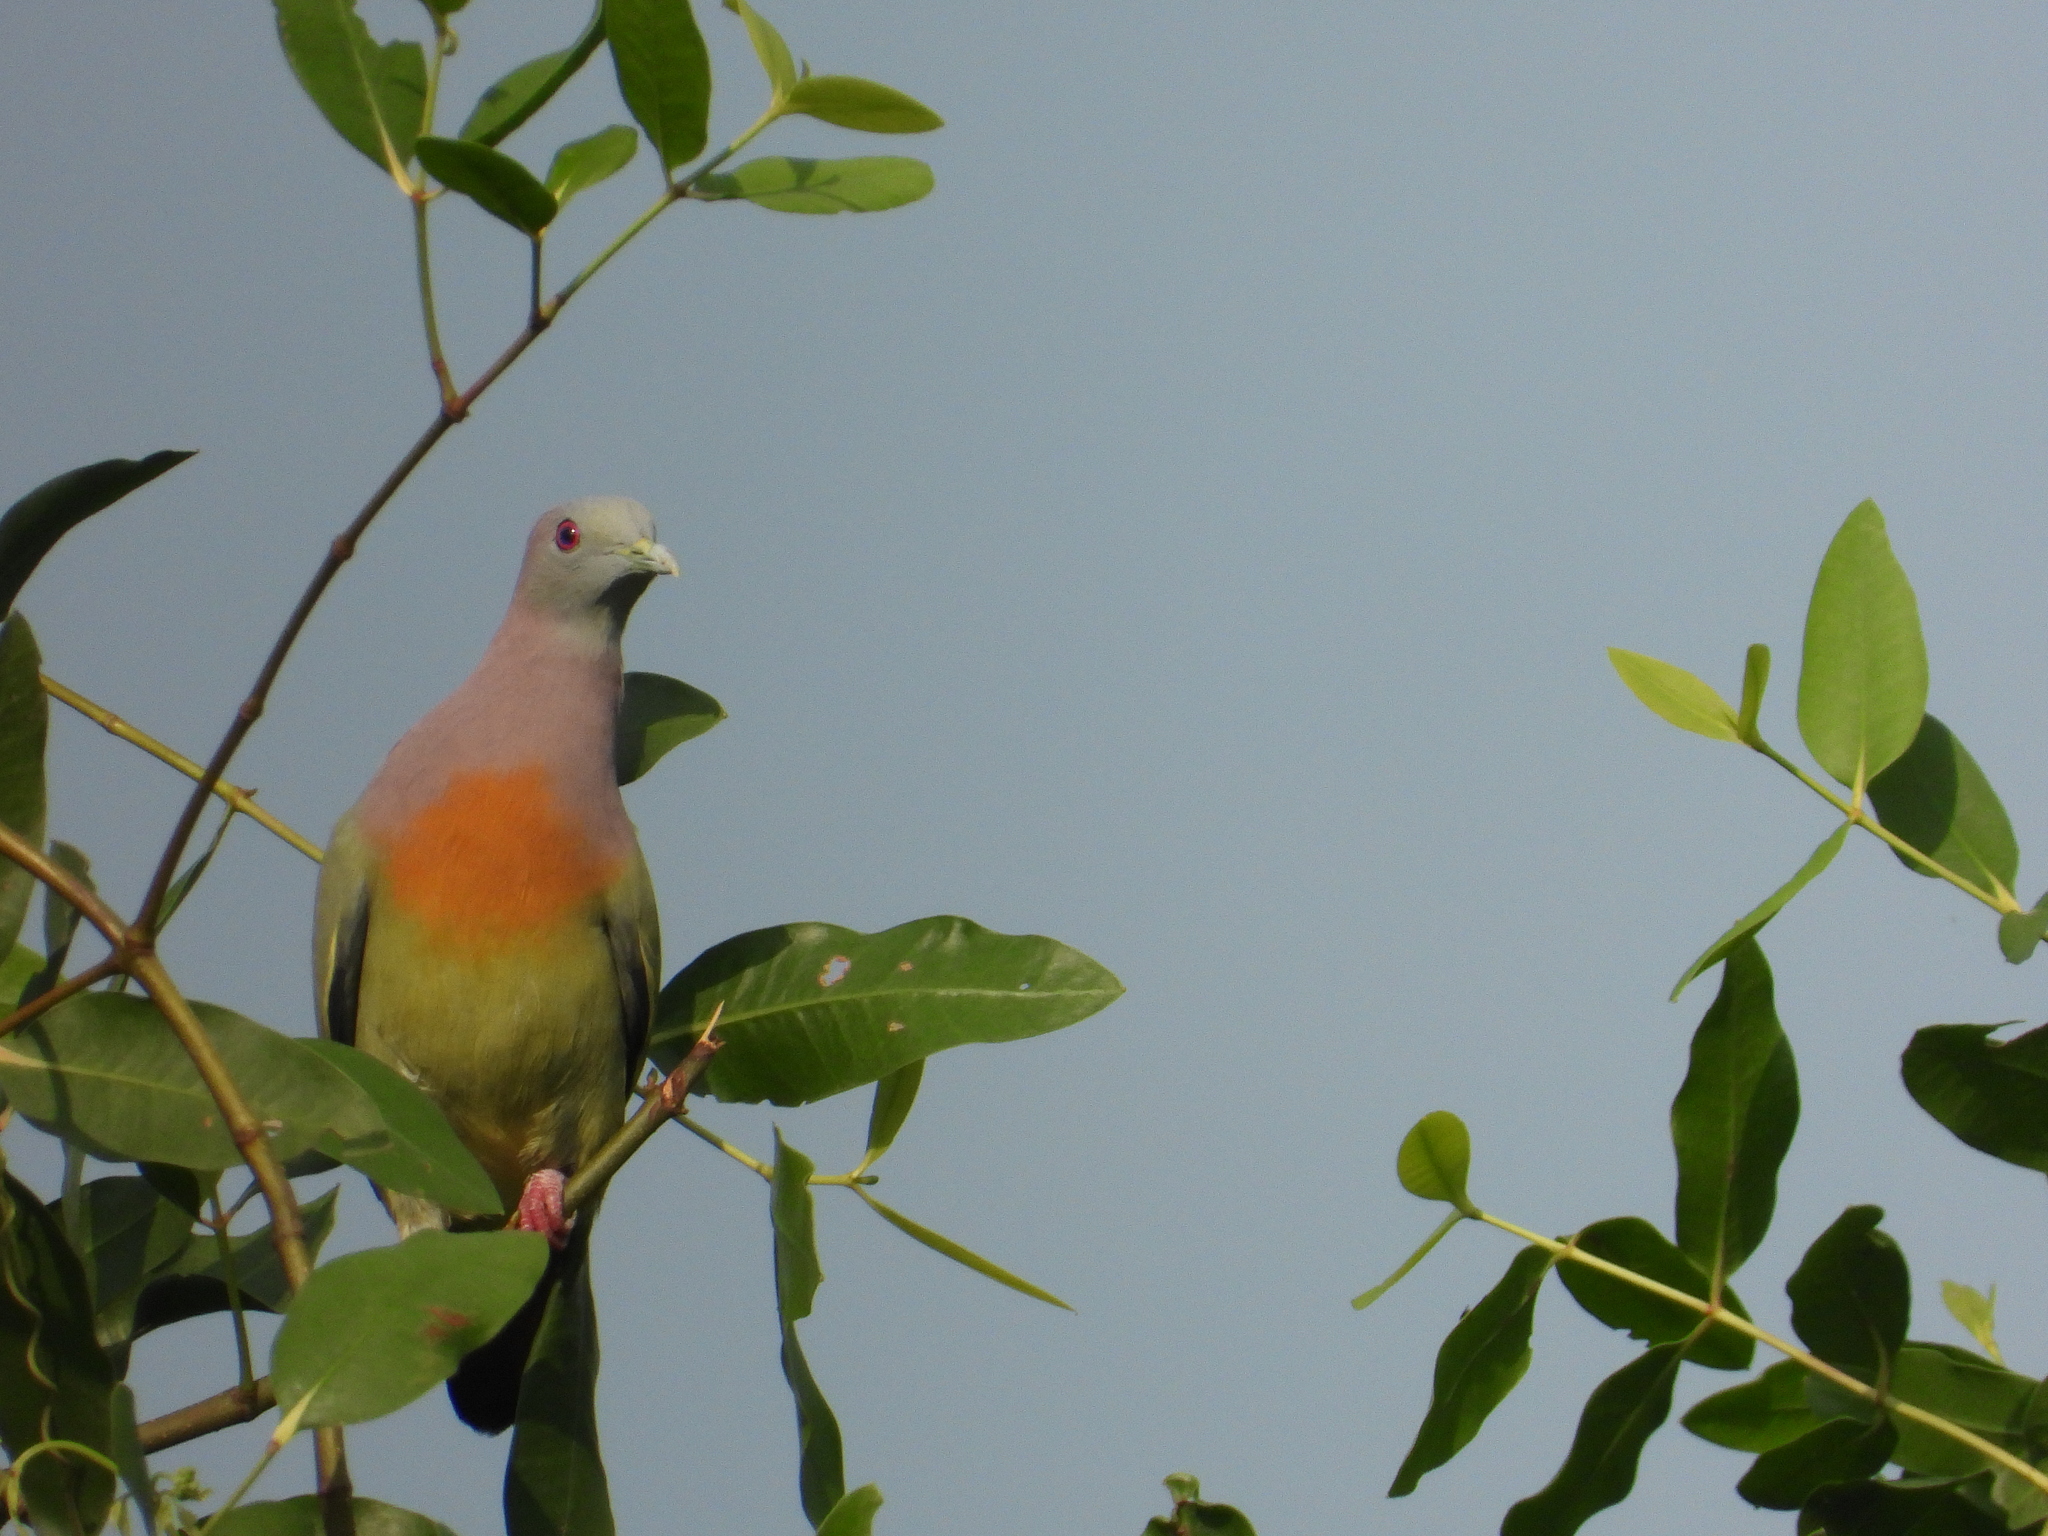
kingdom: Animalia
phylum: Chordata
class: Aves
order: Columbiformes
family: Columbidae
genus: Treron
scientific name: Treron vernans
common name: Pink-necked green pigeon
